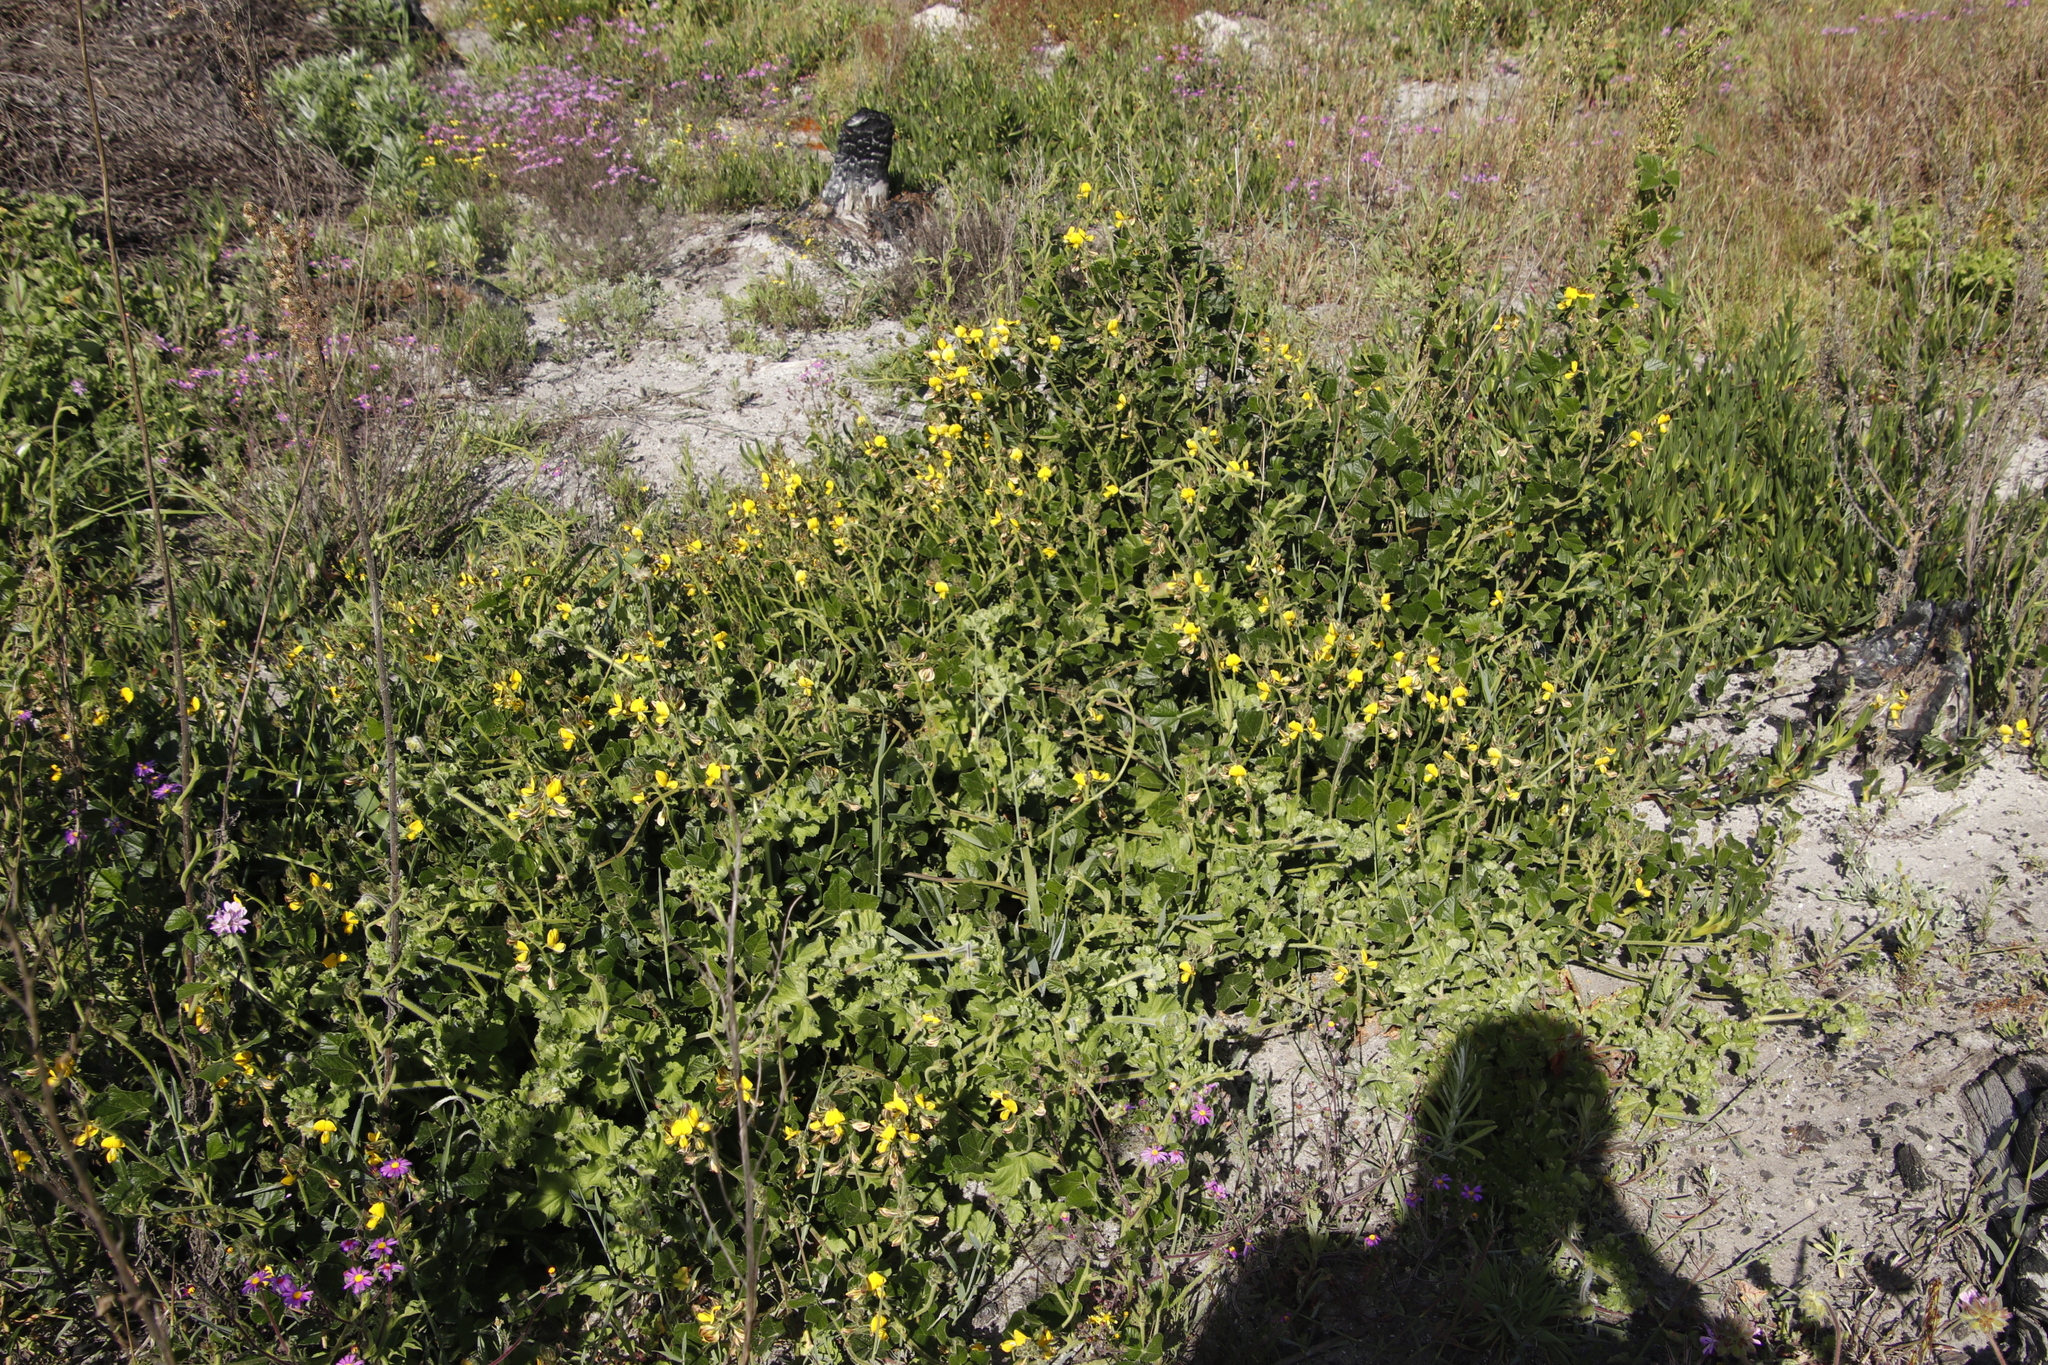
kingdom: Plantae
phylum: Tracheophyta
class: Magnoliopsida
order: Fabales
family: Fabaceae
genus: Bolusafra
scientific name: Bolusafra bituminosa
